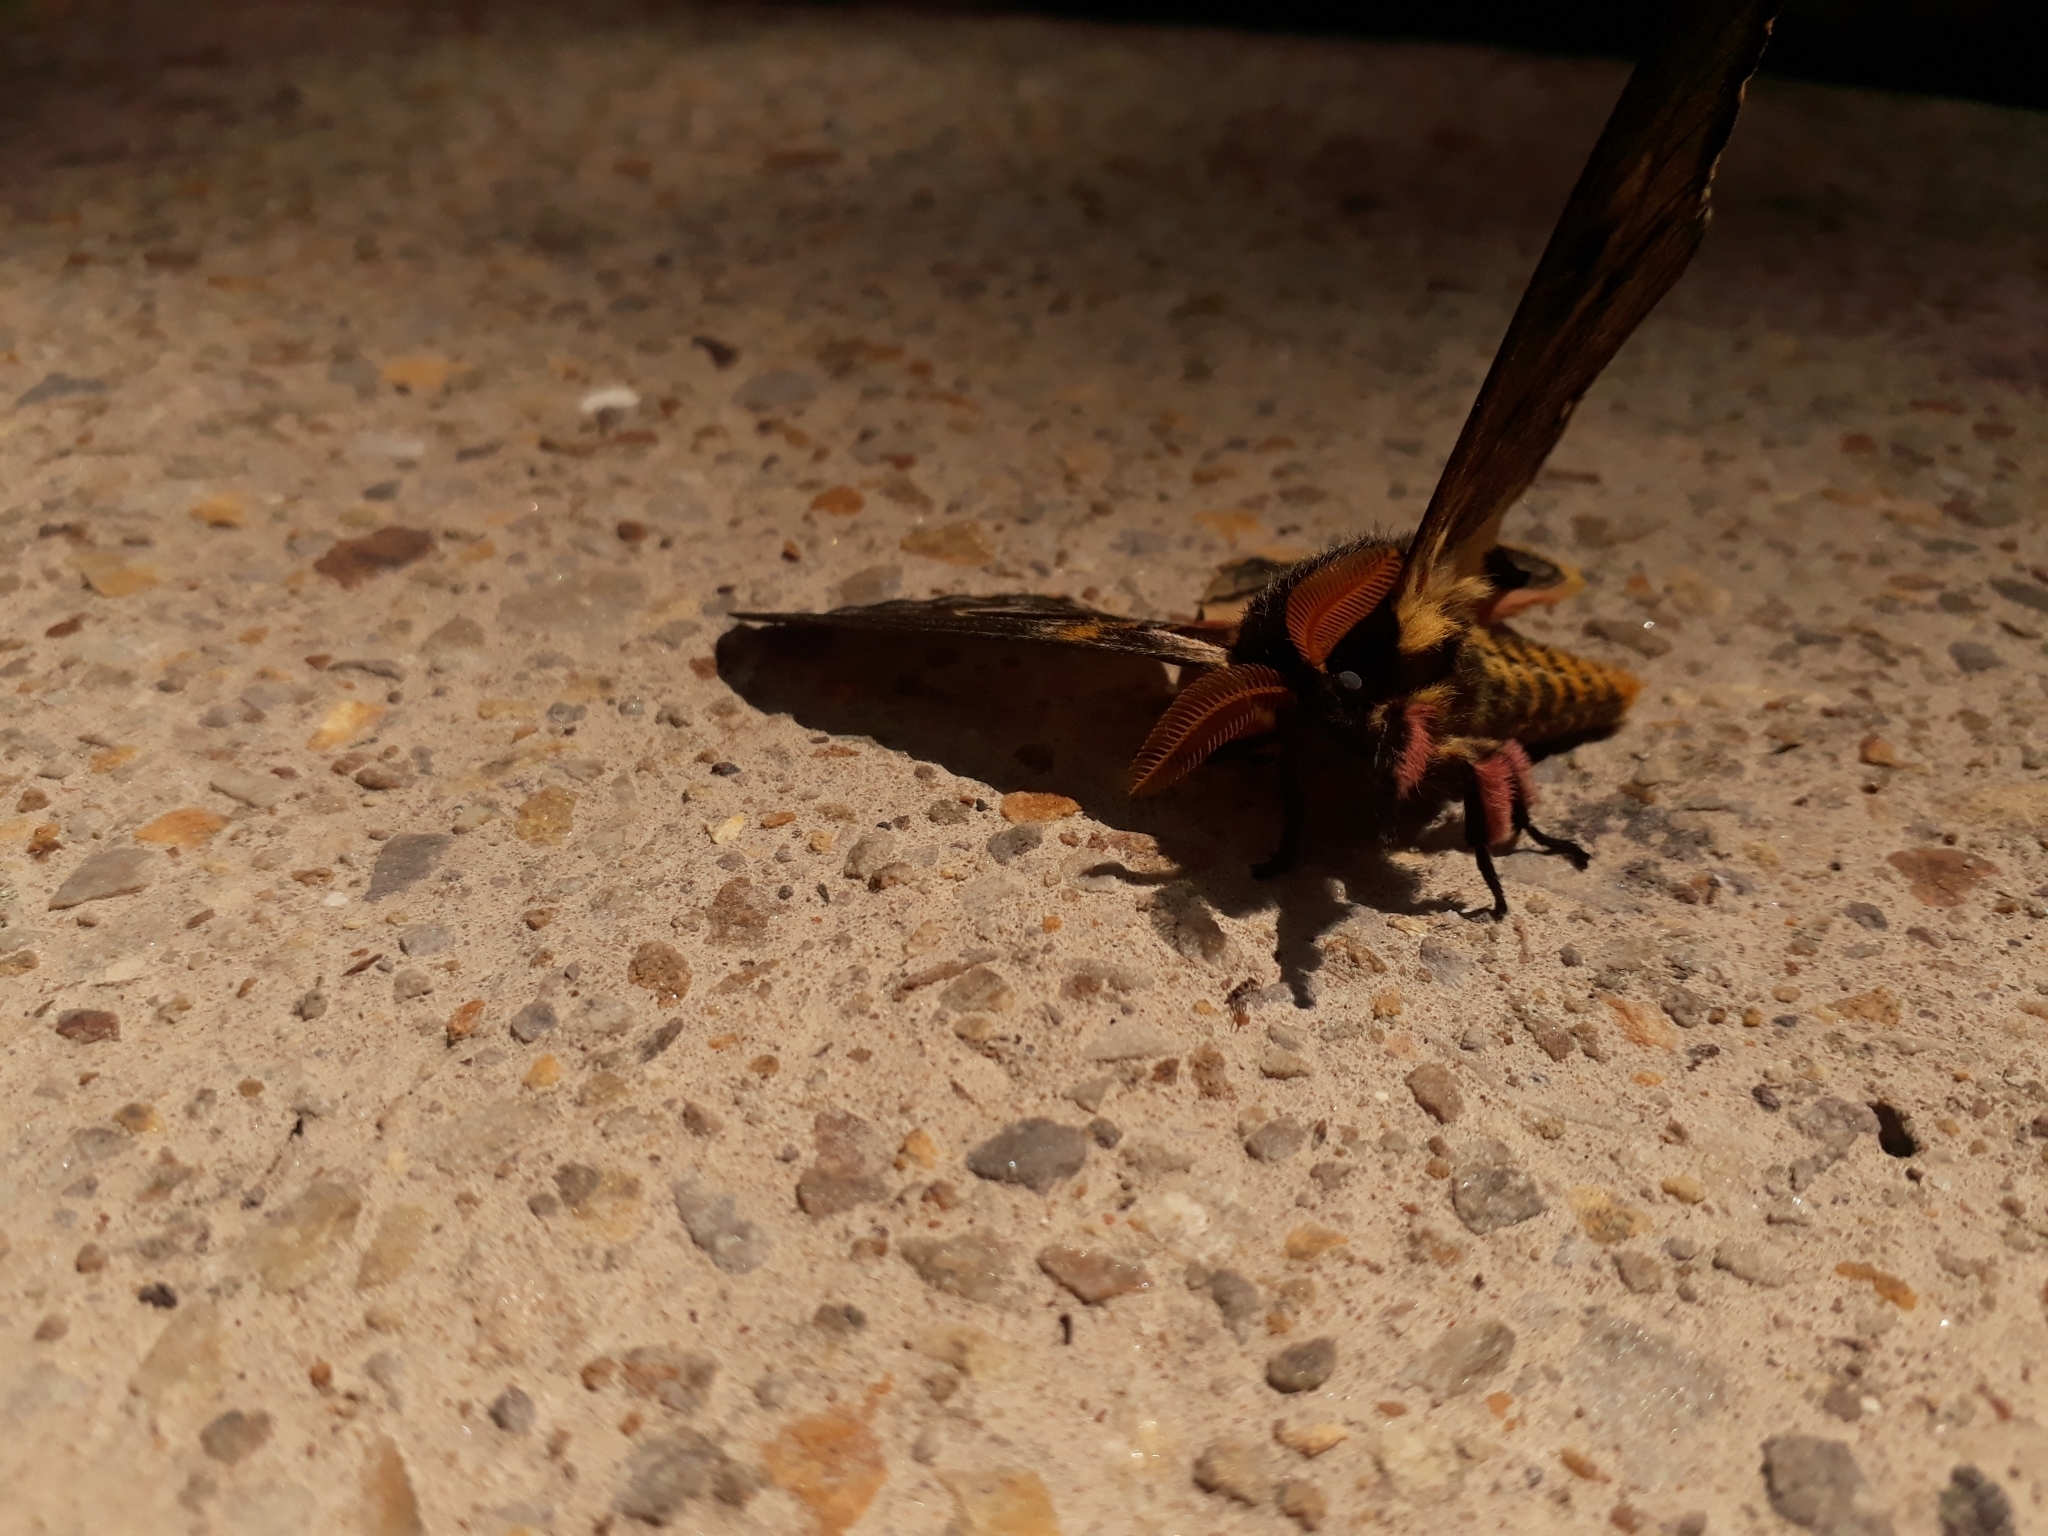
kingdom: Animalia
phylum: Arthropoda
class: Insecta
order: Lepidoptera
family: Saturniidae
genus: Erythromeris
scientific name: Erythromeris saturniata
